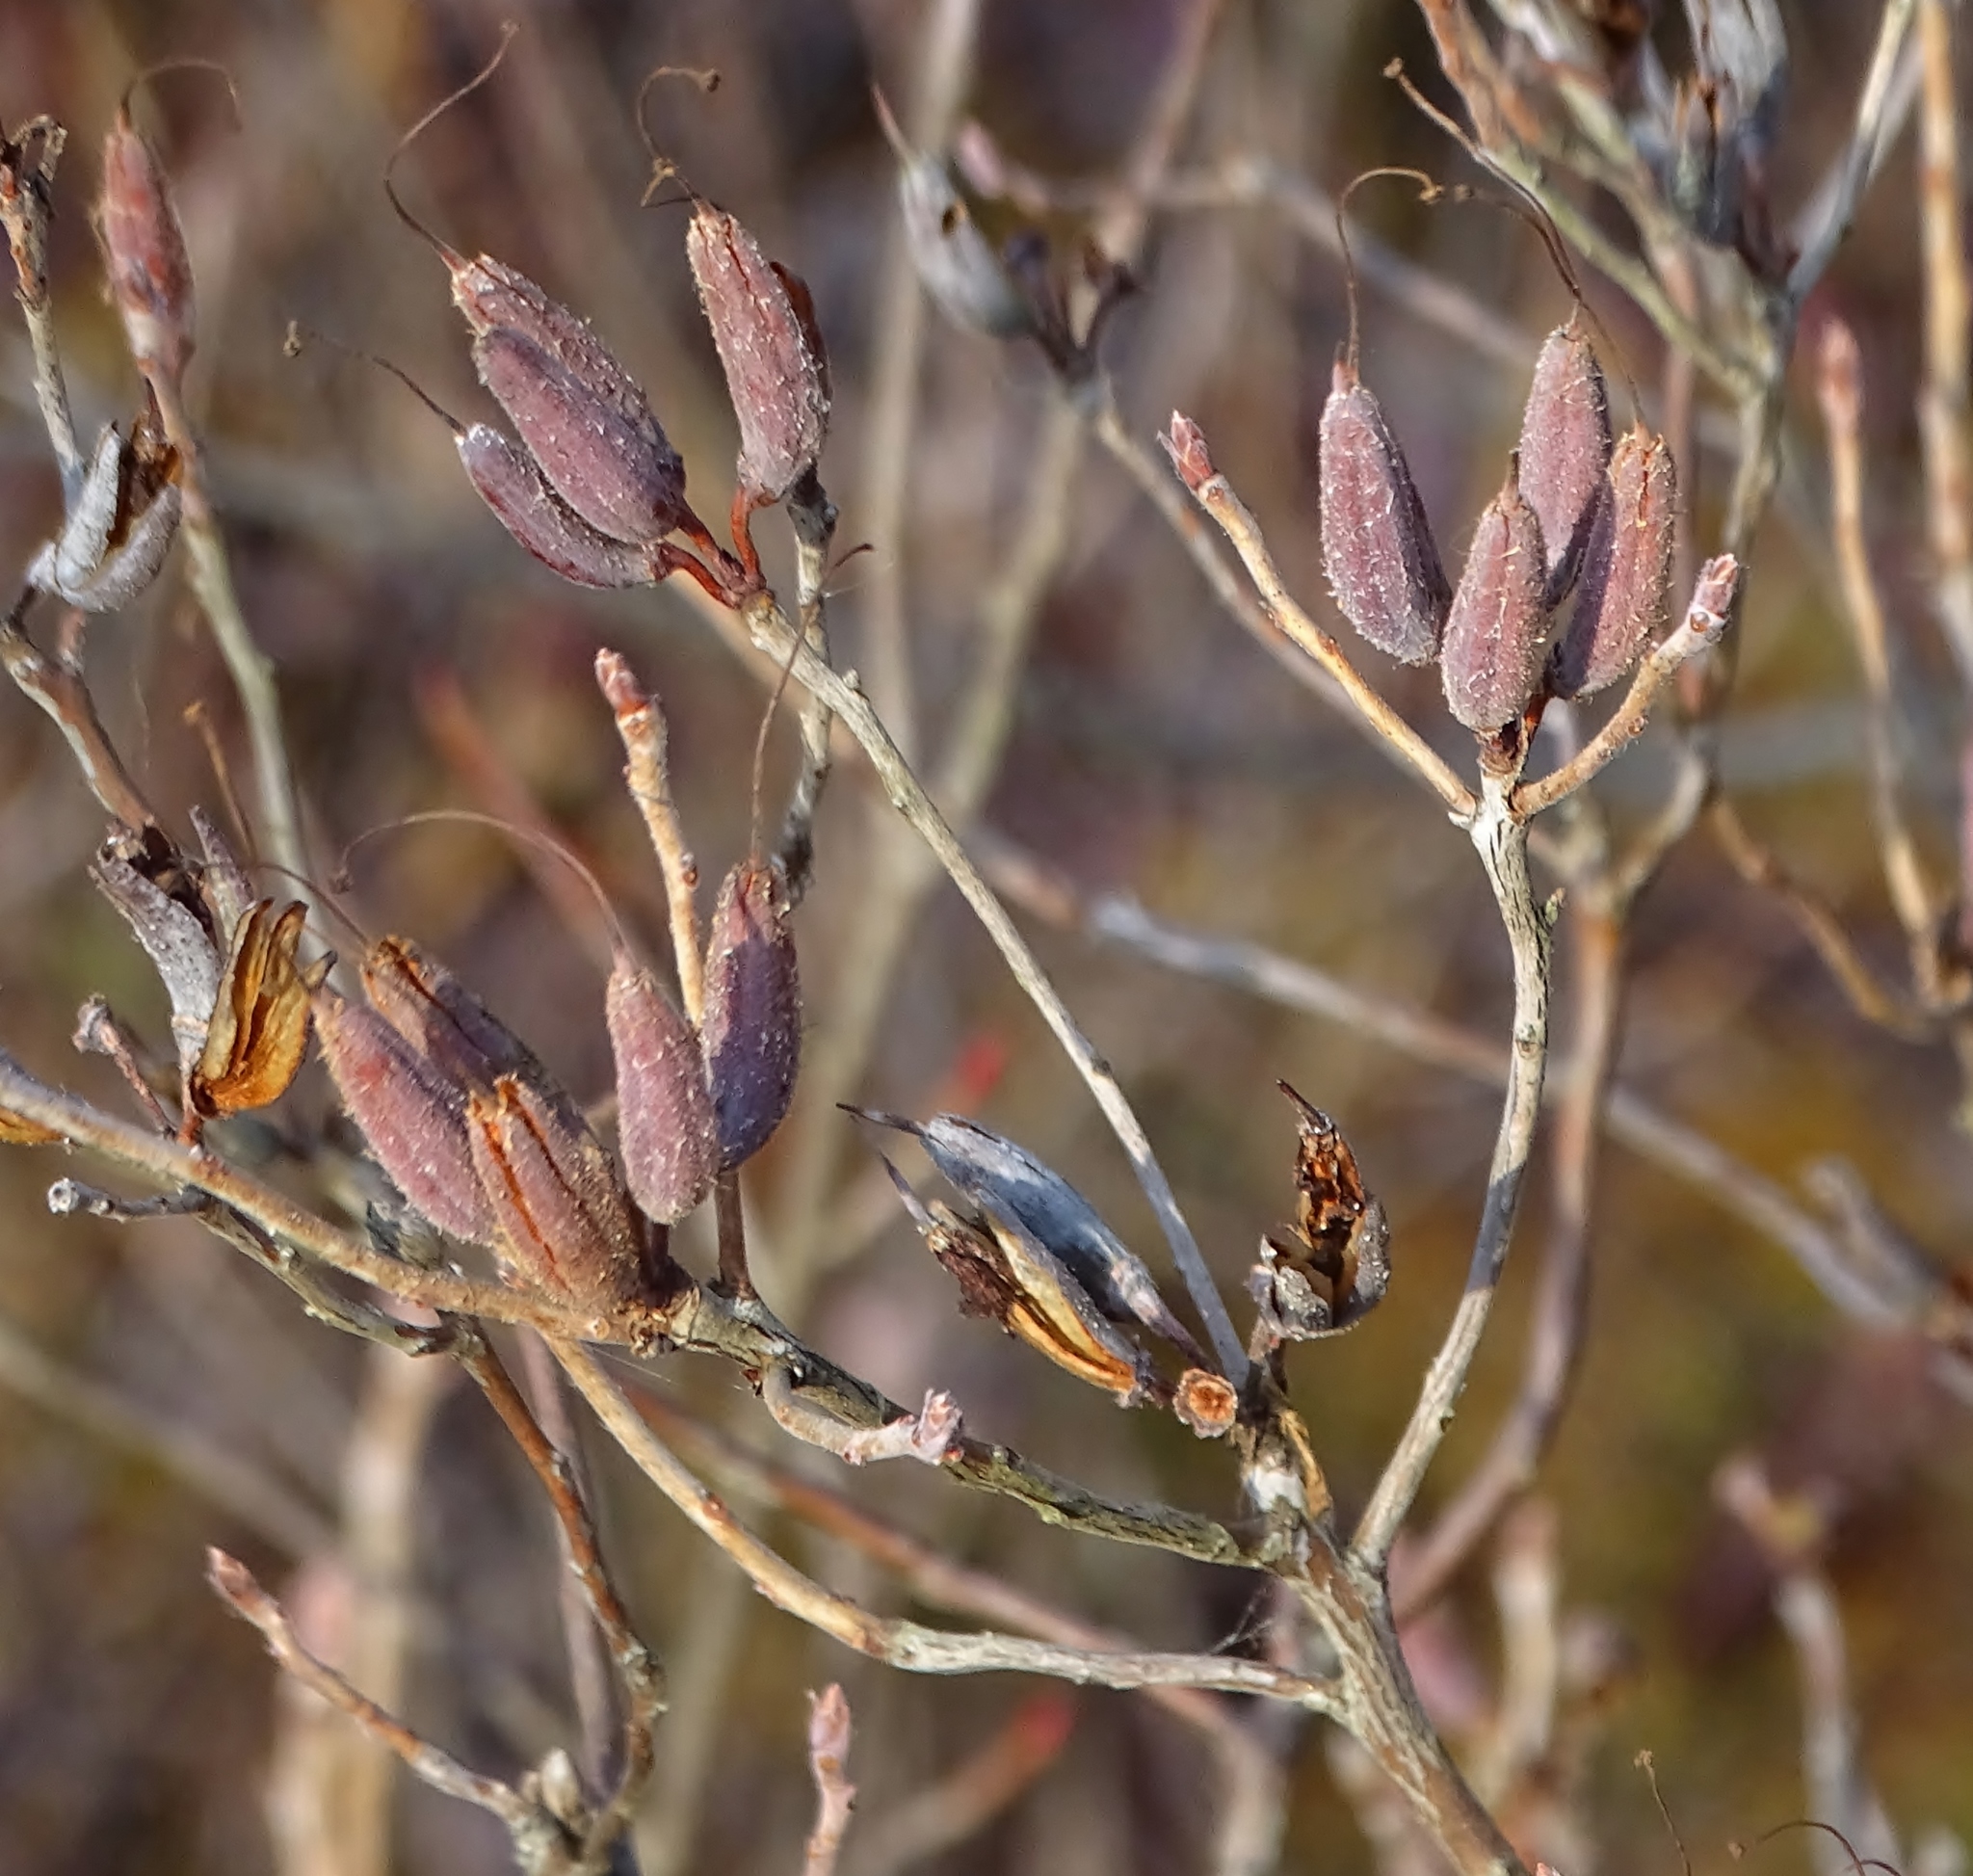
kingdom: Plantae
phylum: Tracheophyta
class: Magnoliopsida
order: Ericales
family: Ericaceae
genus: Rhododendron
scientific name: Rhododendron canadense
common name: Rhodora
